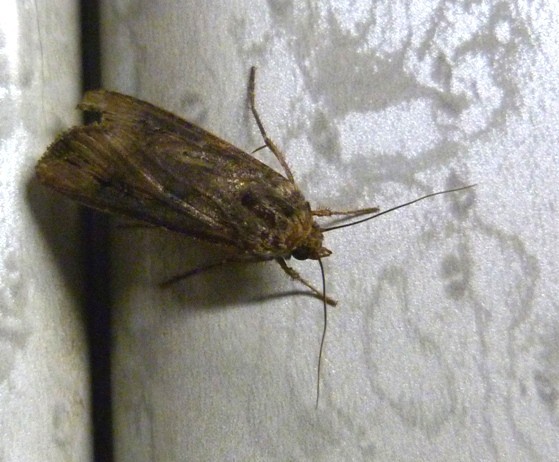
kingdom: Animalia
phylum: Arthropoda
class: Insecta
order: Lepidoptera
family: Noctuidae
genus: Agrotis
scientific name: Agrotis ipsilon
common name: Dark sword-grass
